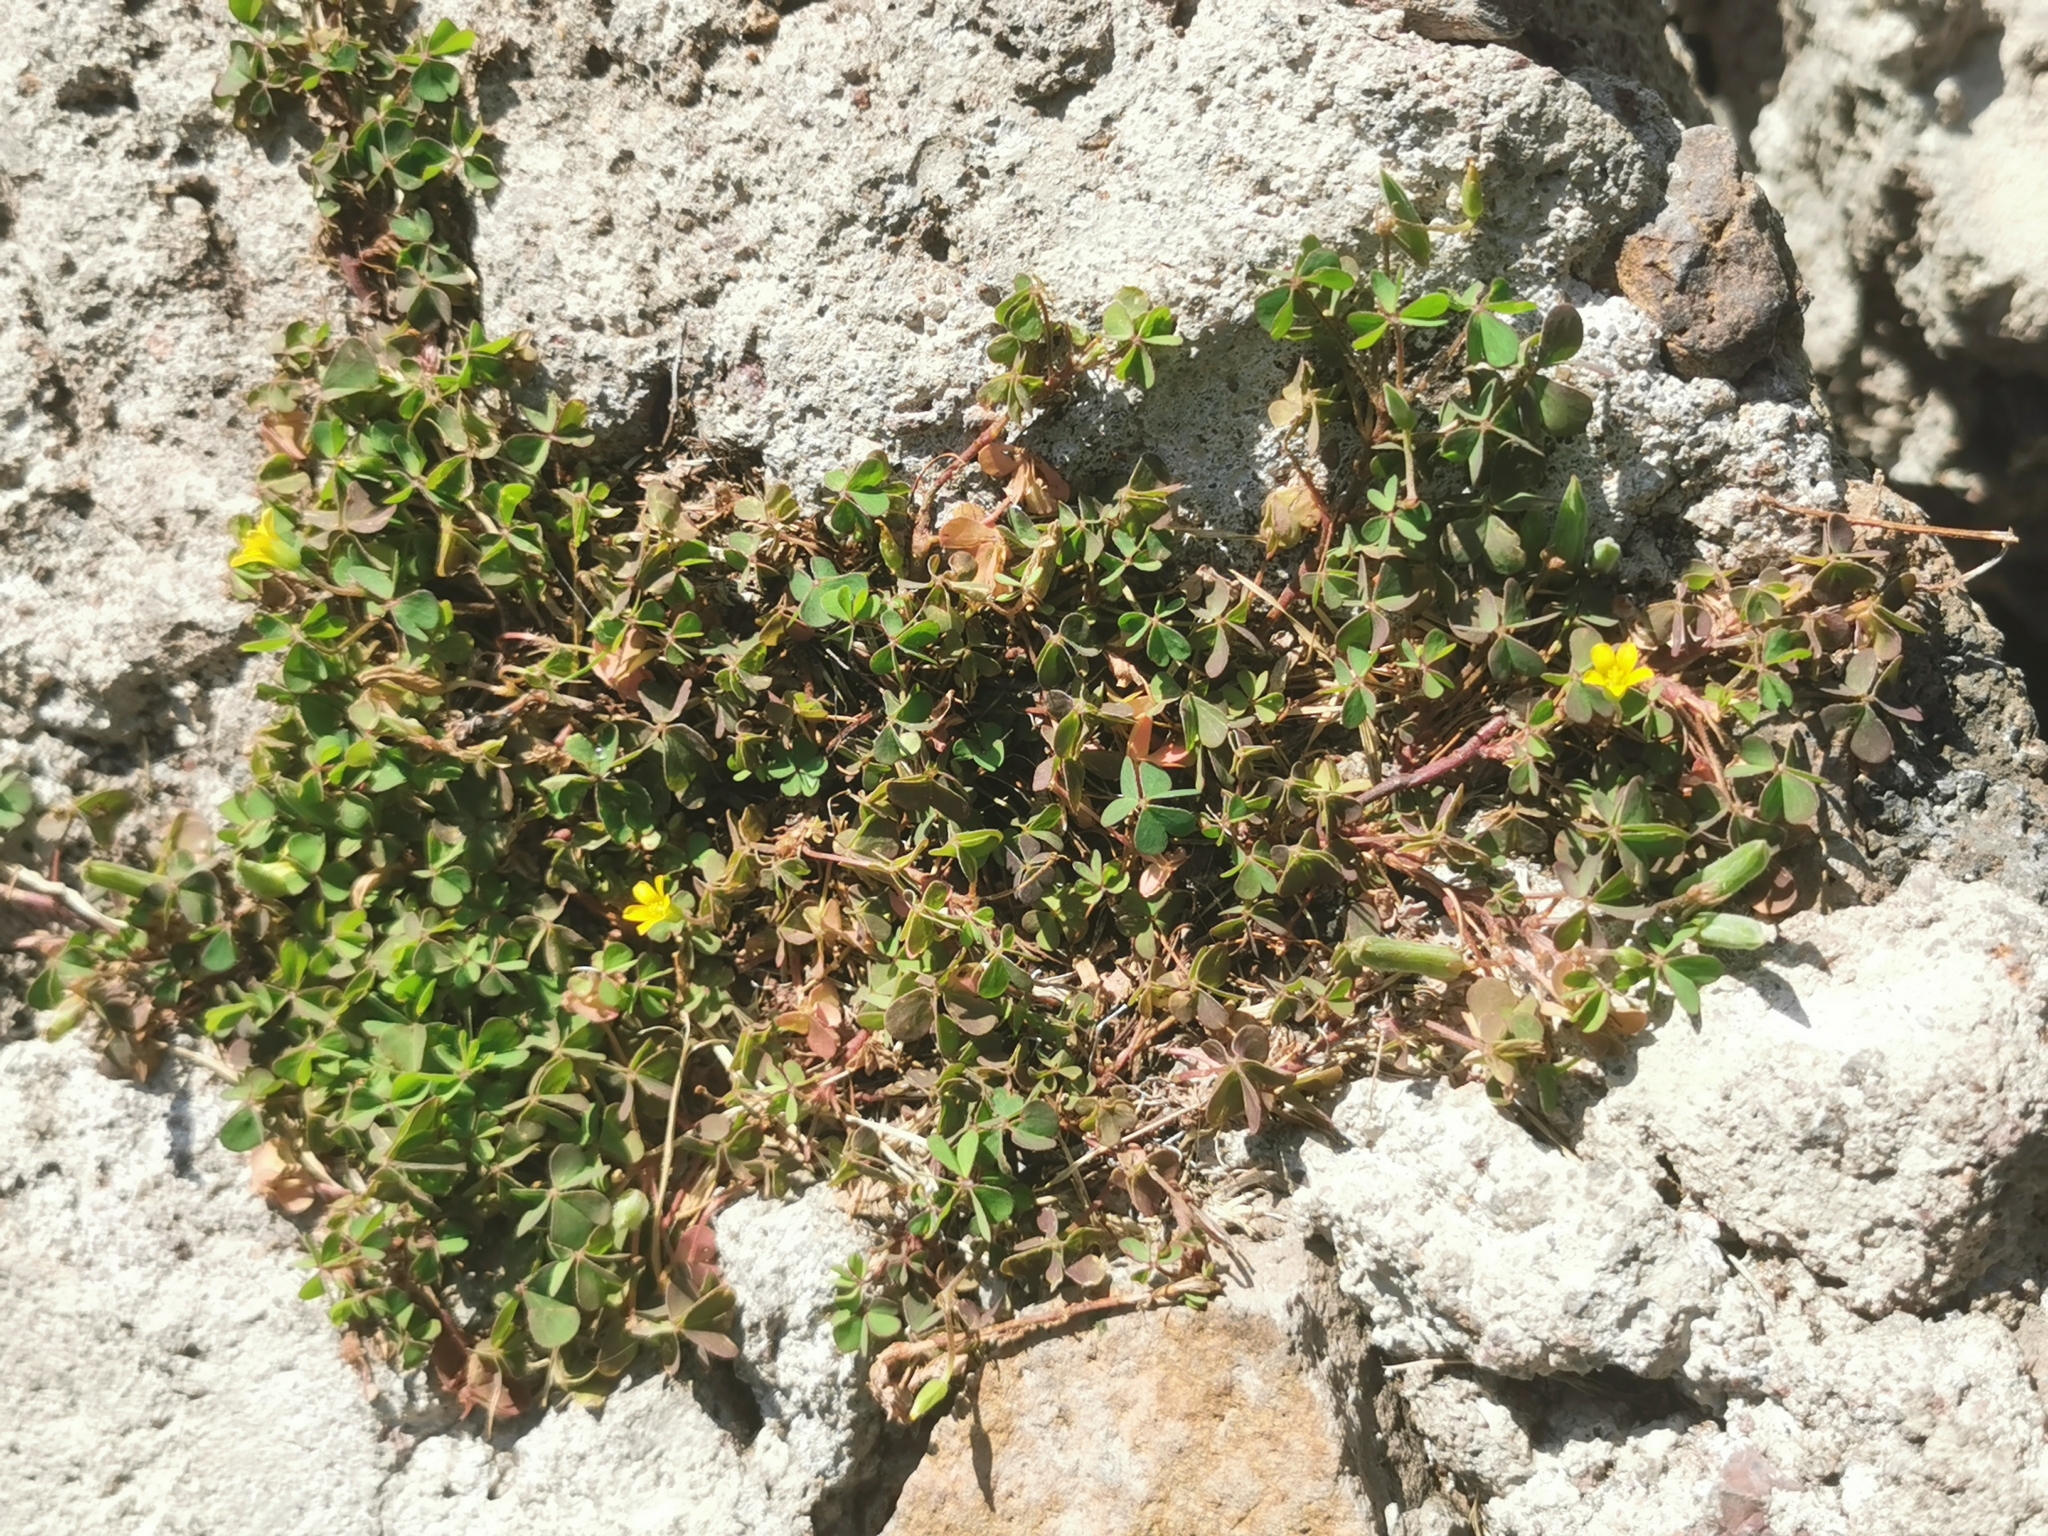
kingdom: Plantae
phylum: Tracheophyta
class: Magnoliopsida
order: Oxalidales
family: Oxalidaceae
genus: Oxalis
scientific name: Oxalis corniculata
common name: Procumbent yellow-sorrel
